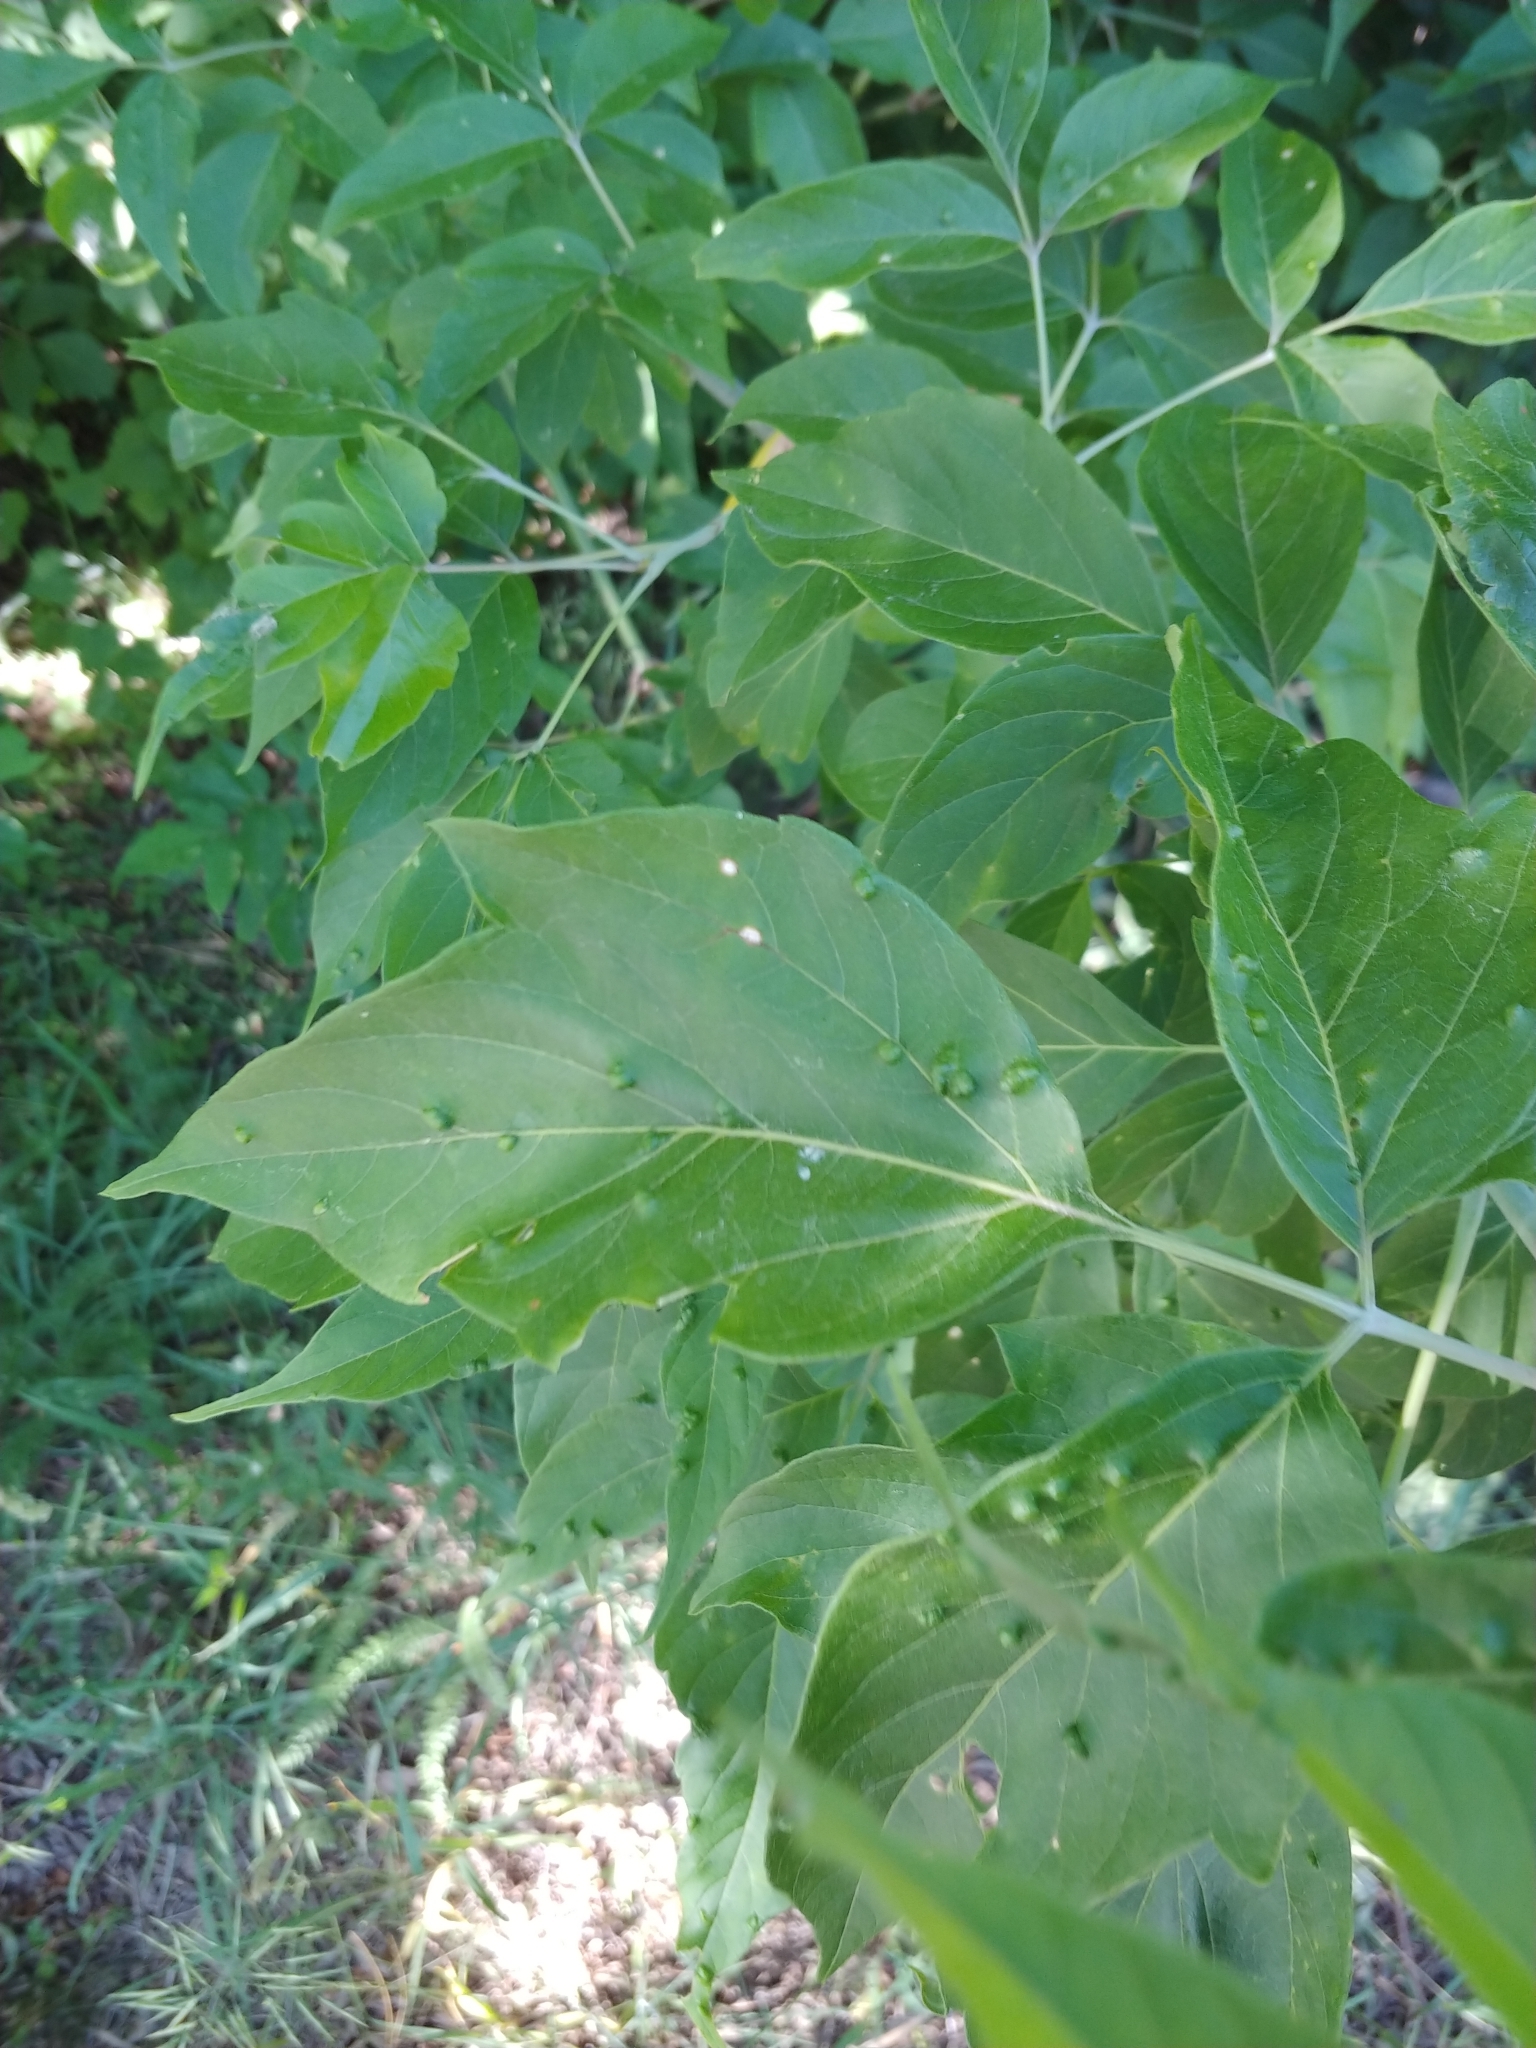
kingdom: Animalia
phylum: Arthropoda
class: Arachnida
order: Trombidiformes
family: Eriophyidae
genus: Aceria
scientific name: Aceria
